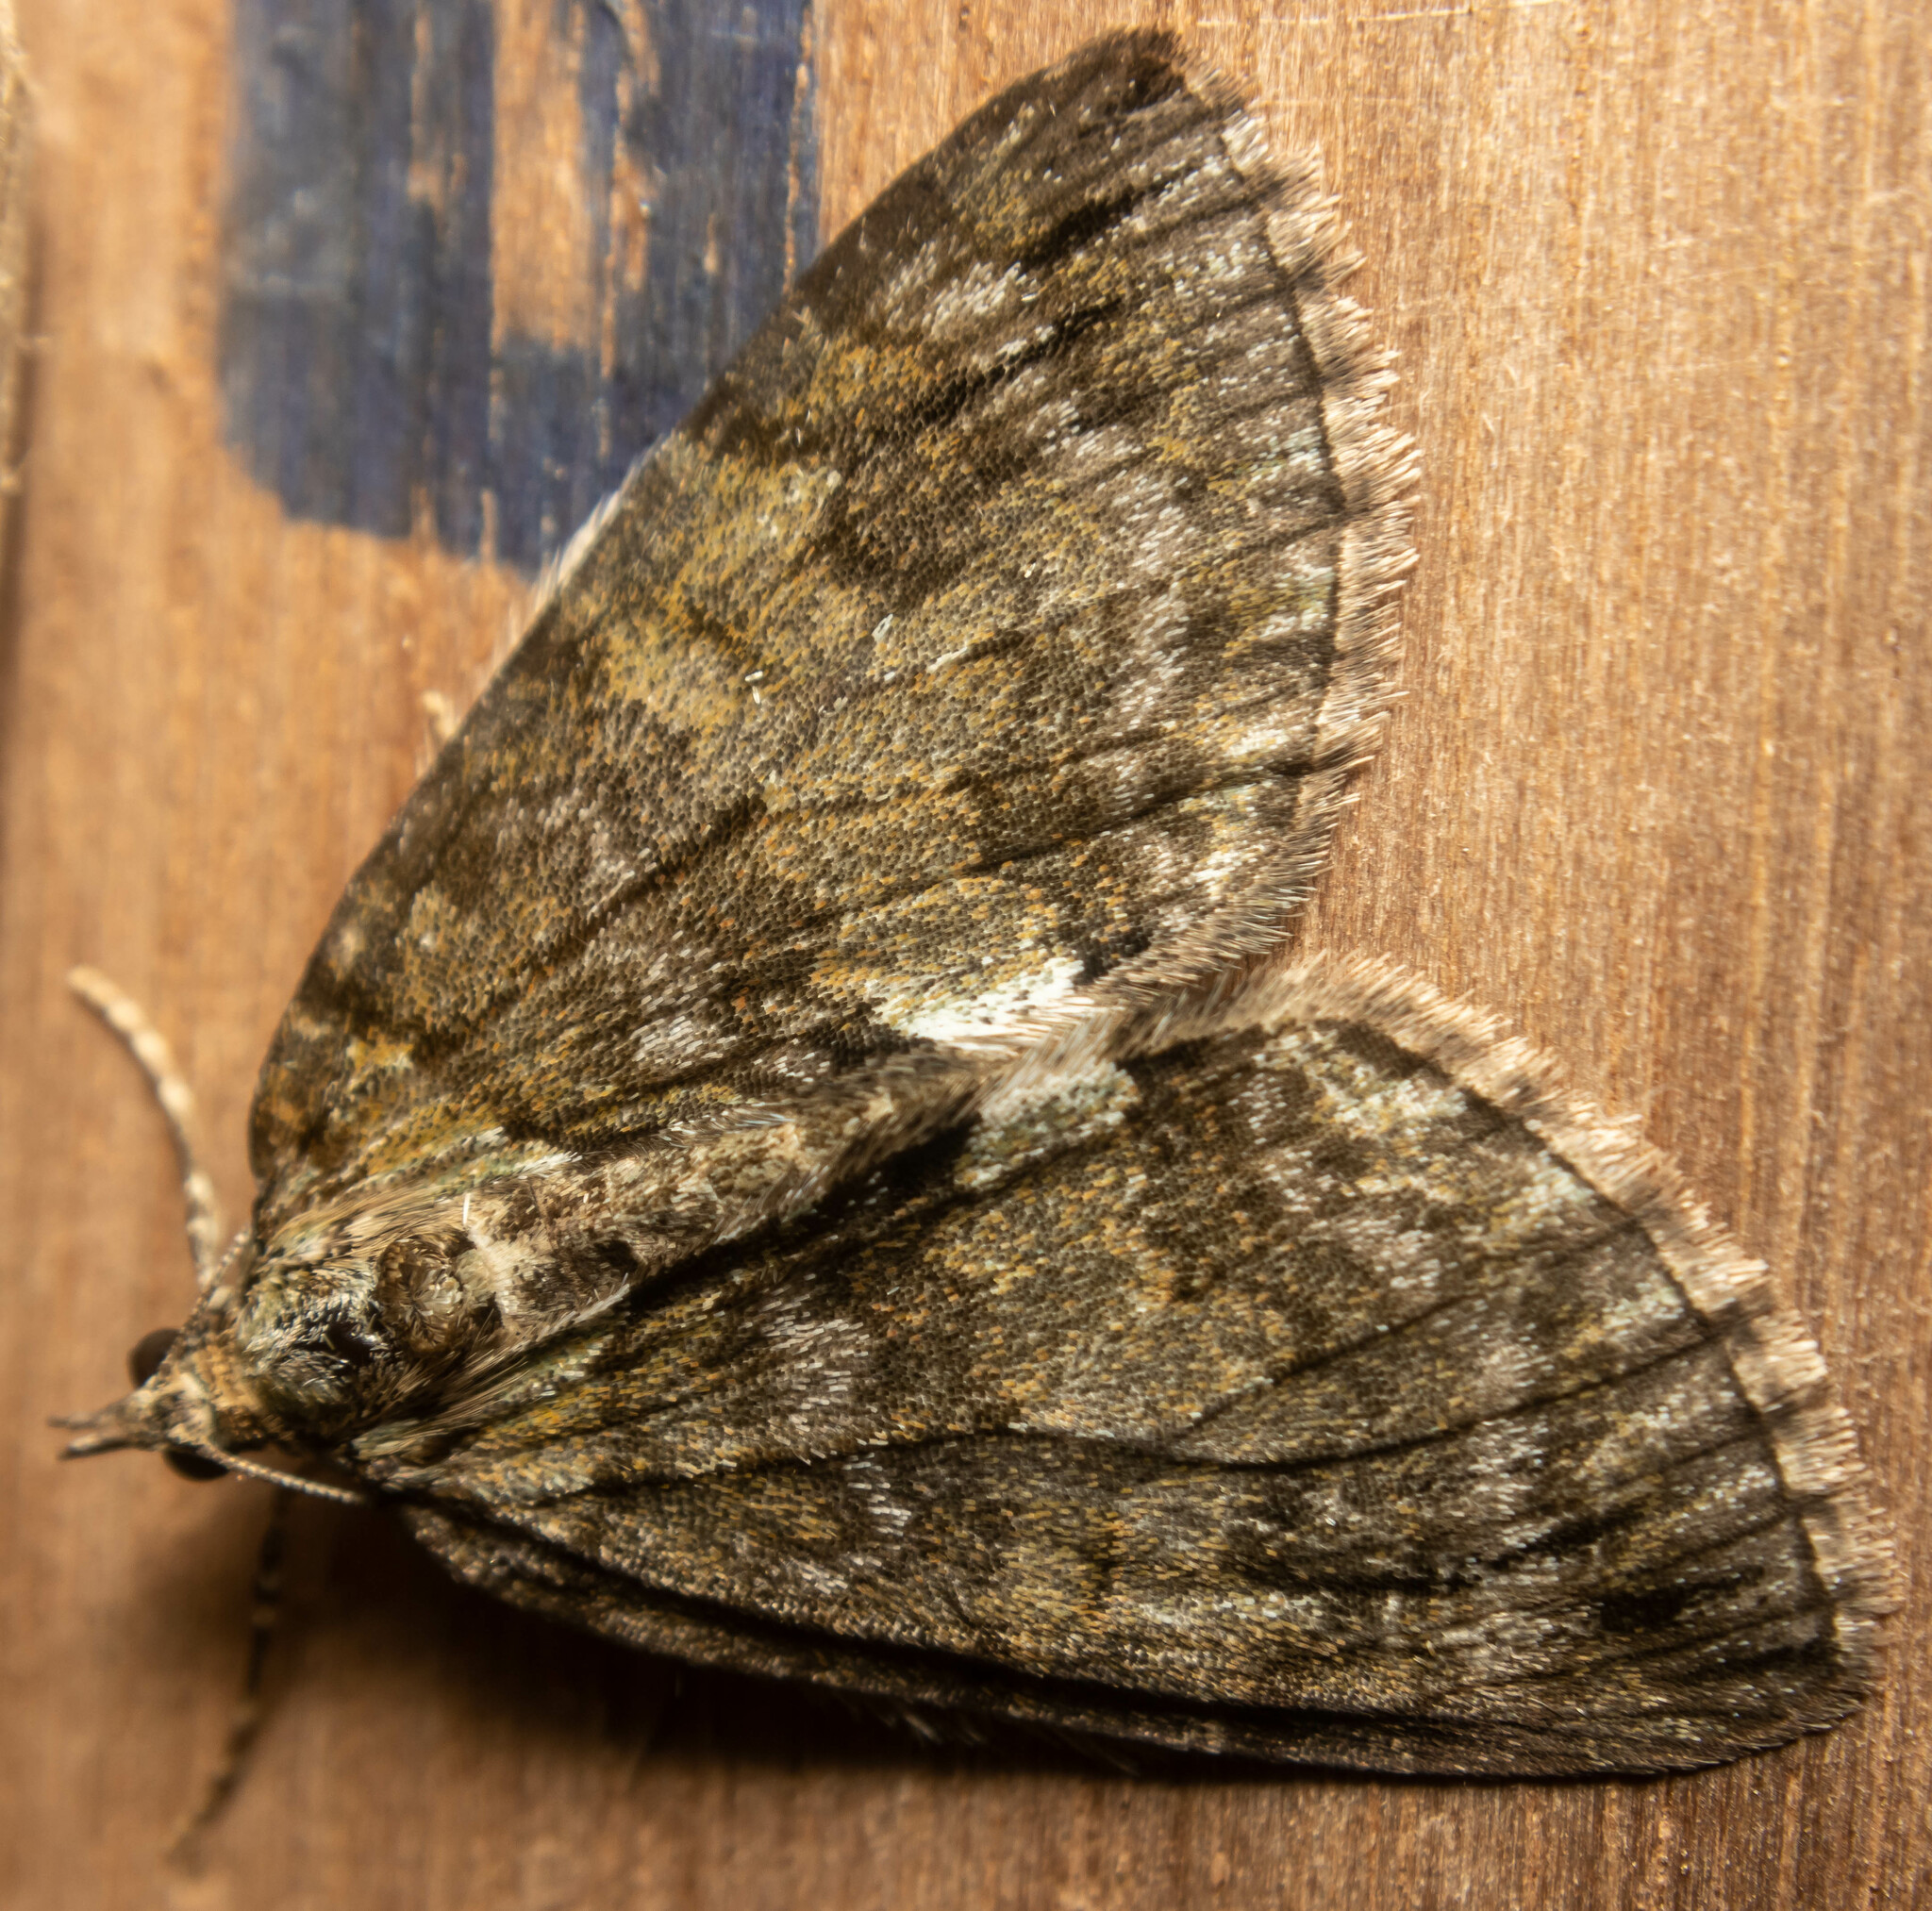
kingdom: Animalia
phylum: Arthropoda
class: Insecta
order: Lepidoptera
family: Geometridae
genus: Hydriomena
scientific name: Hydriomena impluviata
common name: May highflyer
